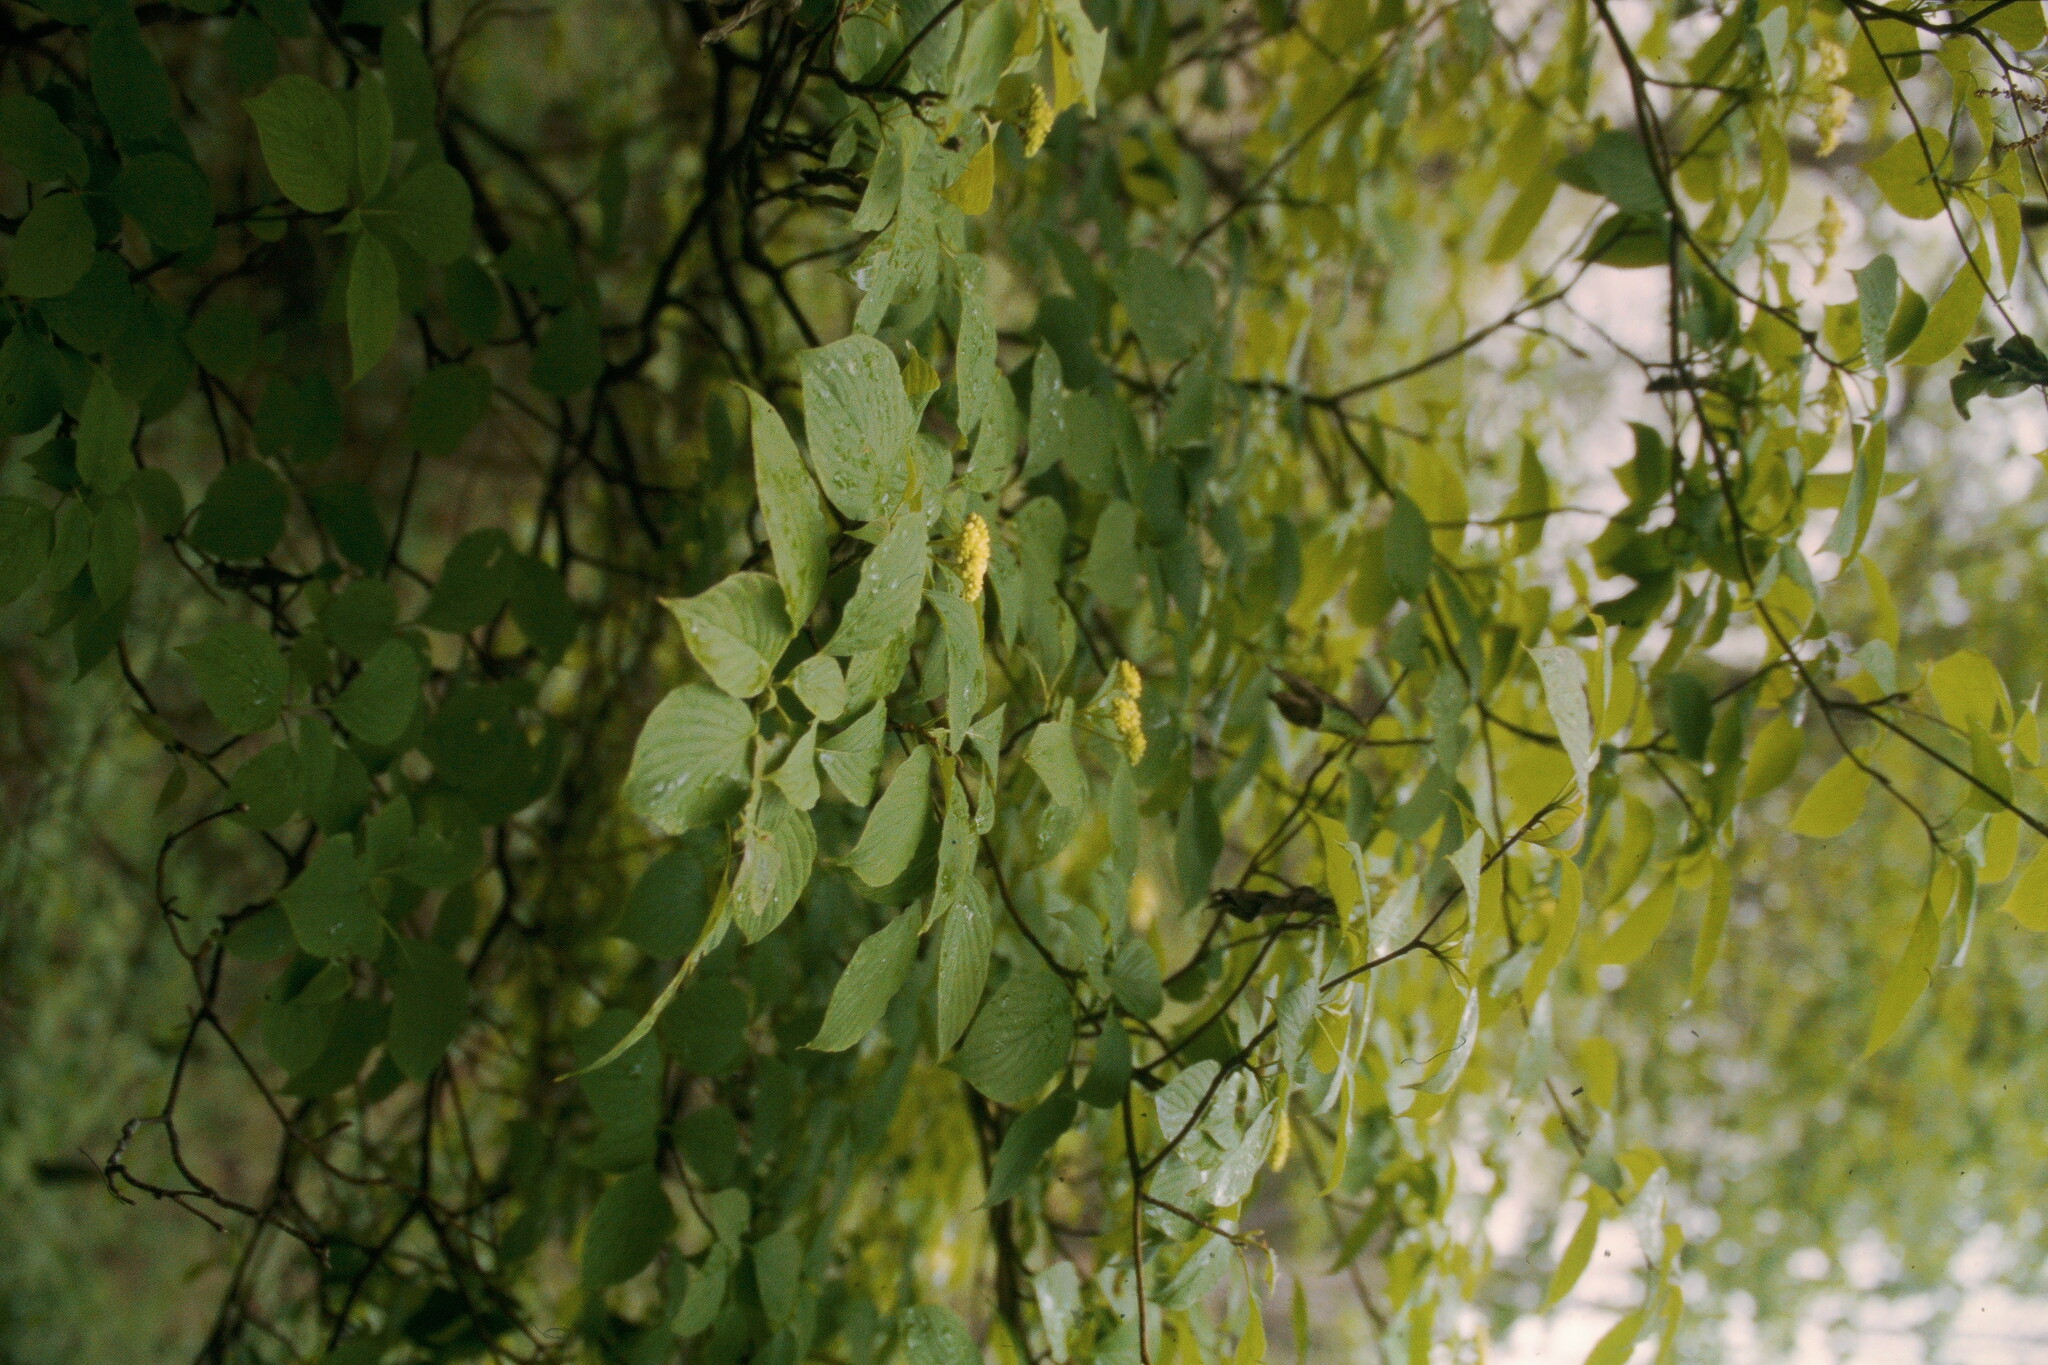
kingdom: Plantae
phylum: Tracheophyta
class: Magnoliopsida
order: Cornales
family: Cornaceae
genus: Cornus
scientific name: Cornus alternifolia
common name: Pagoda dogwood
